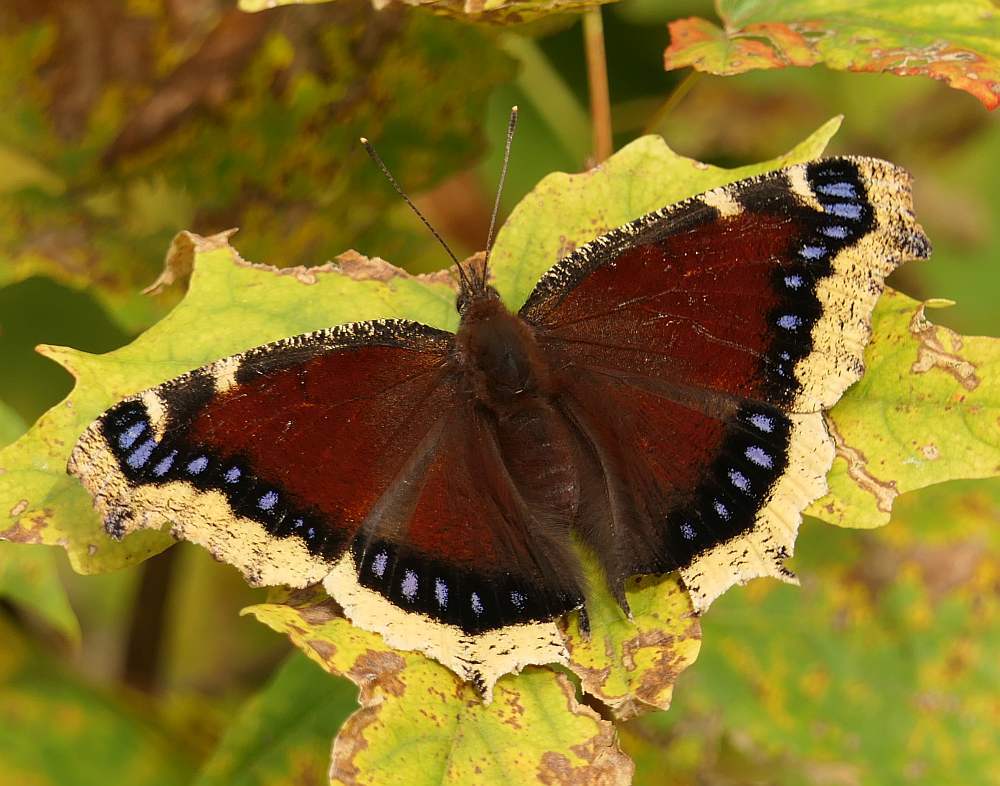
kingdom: Animalia
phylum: Arthropoda
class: Insecta
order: Lepidoptera
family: Nymphalidae
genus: Nymphalis
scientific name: Nymphalis antiopa
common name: Camberwell beauty
